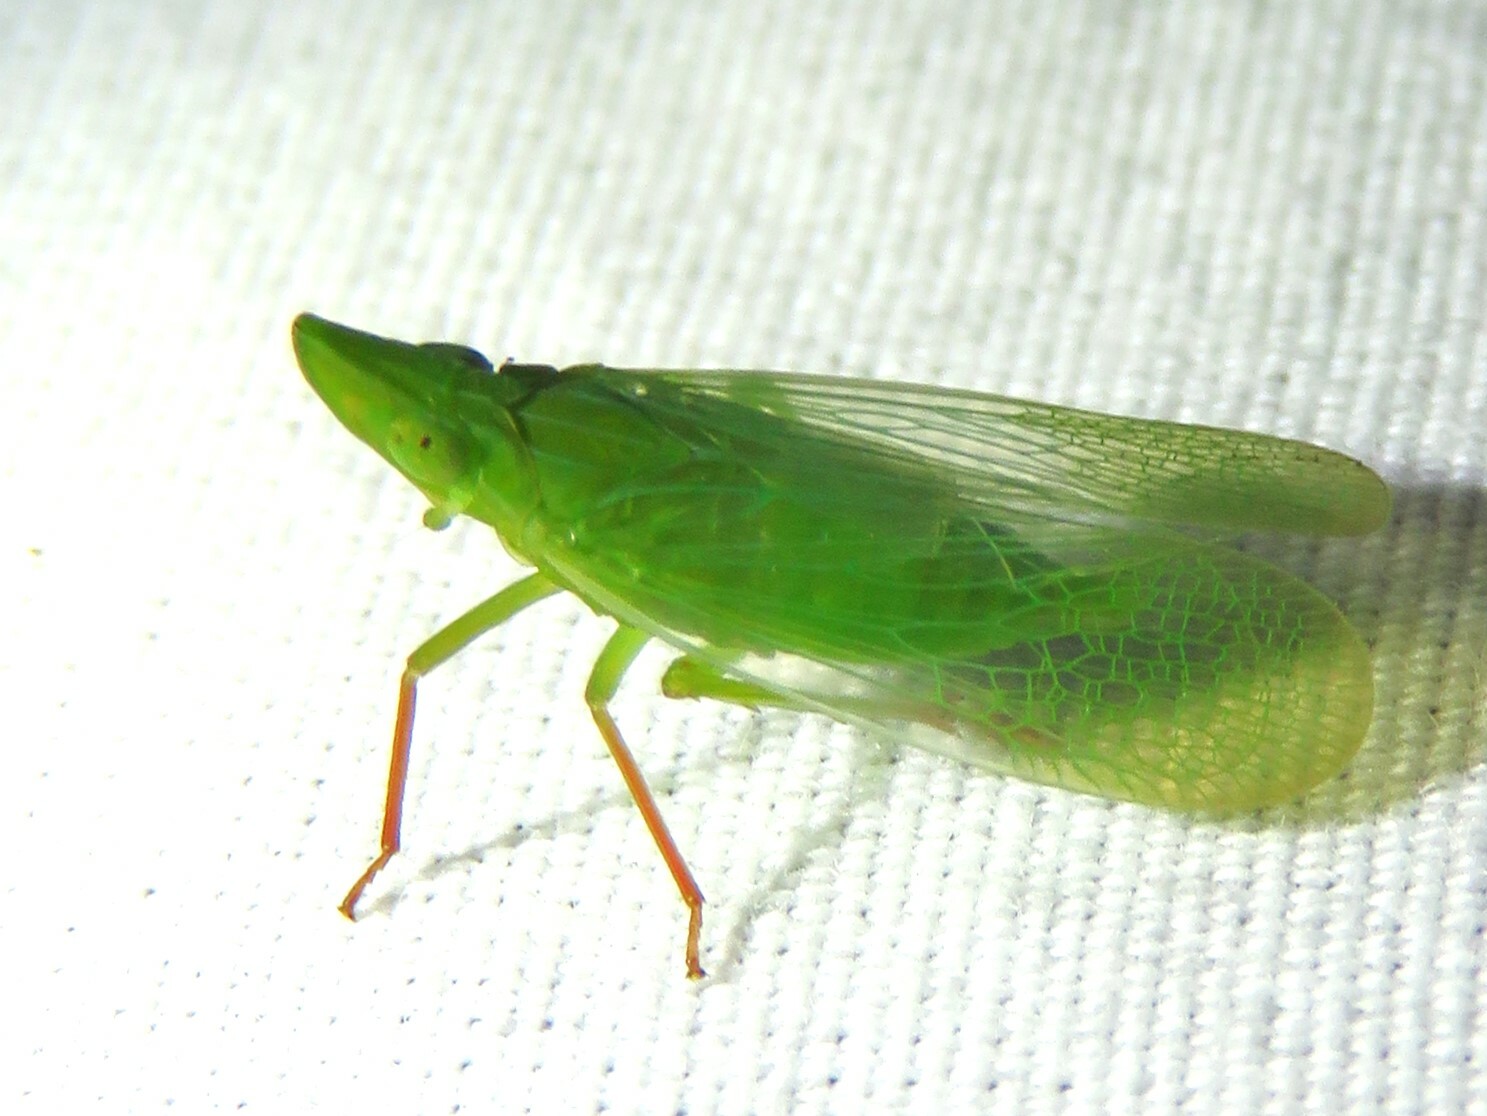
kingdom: Animalia
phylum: Arthropoda
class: Insecta
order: Hemiptera
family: Dictyopharidae
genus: Rhynchomitra
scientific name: Rhynchomitra recurva
